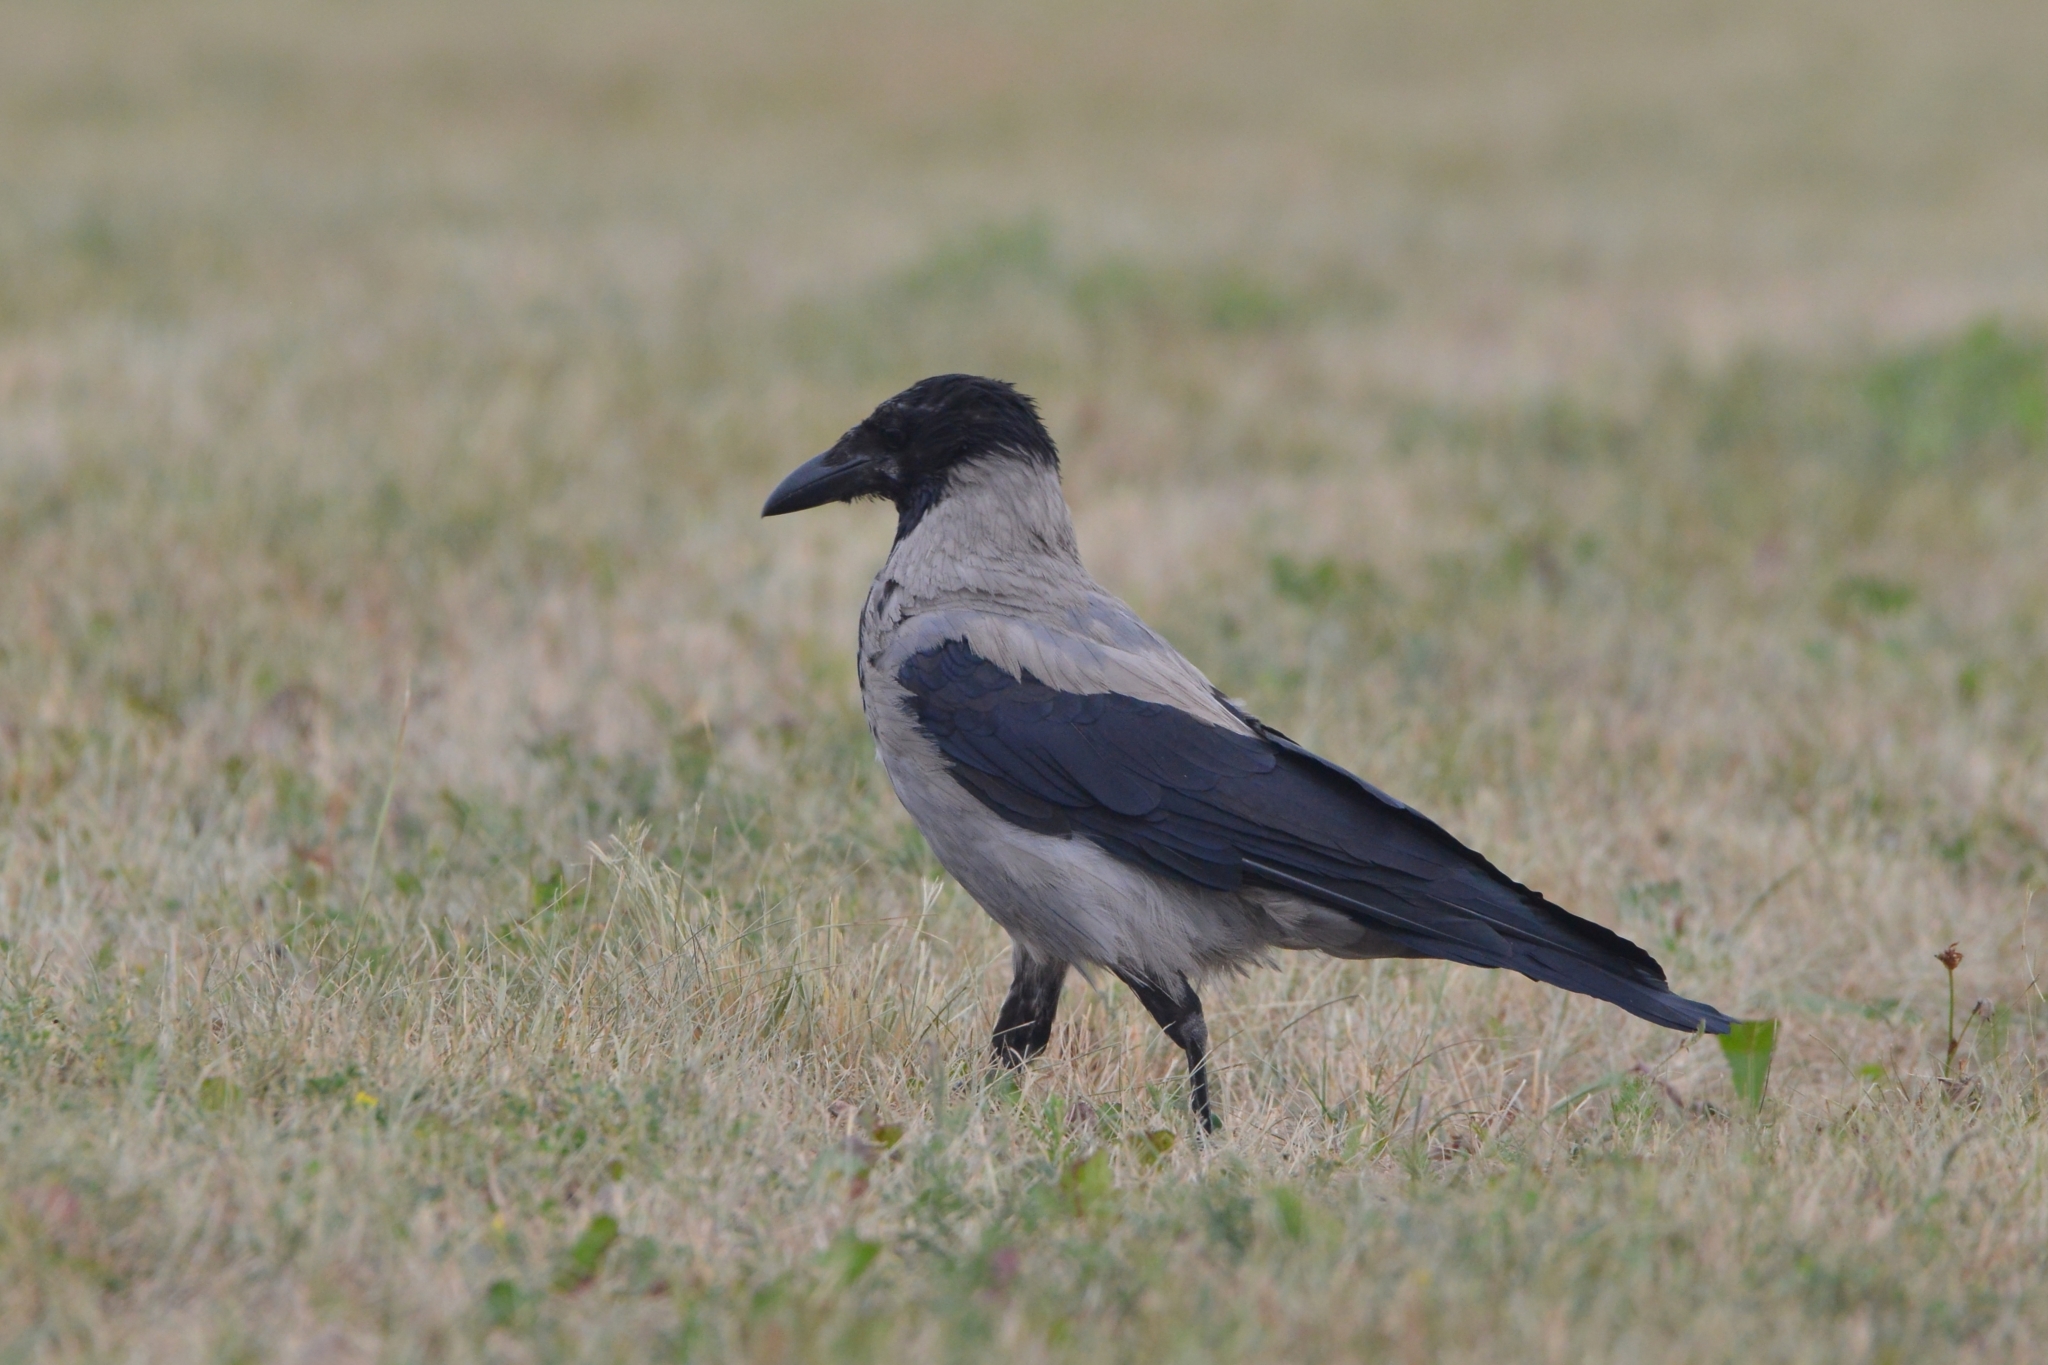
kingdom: Animalia
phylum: Chordata
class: Aves
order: Passeriformes
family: Corvidae
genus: Corvus
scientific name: Corvus cornix
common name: Hooded crow
